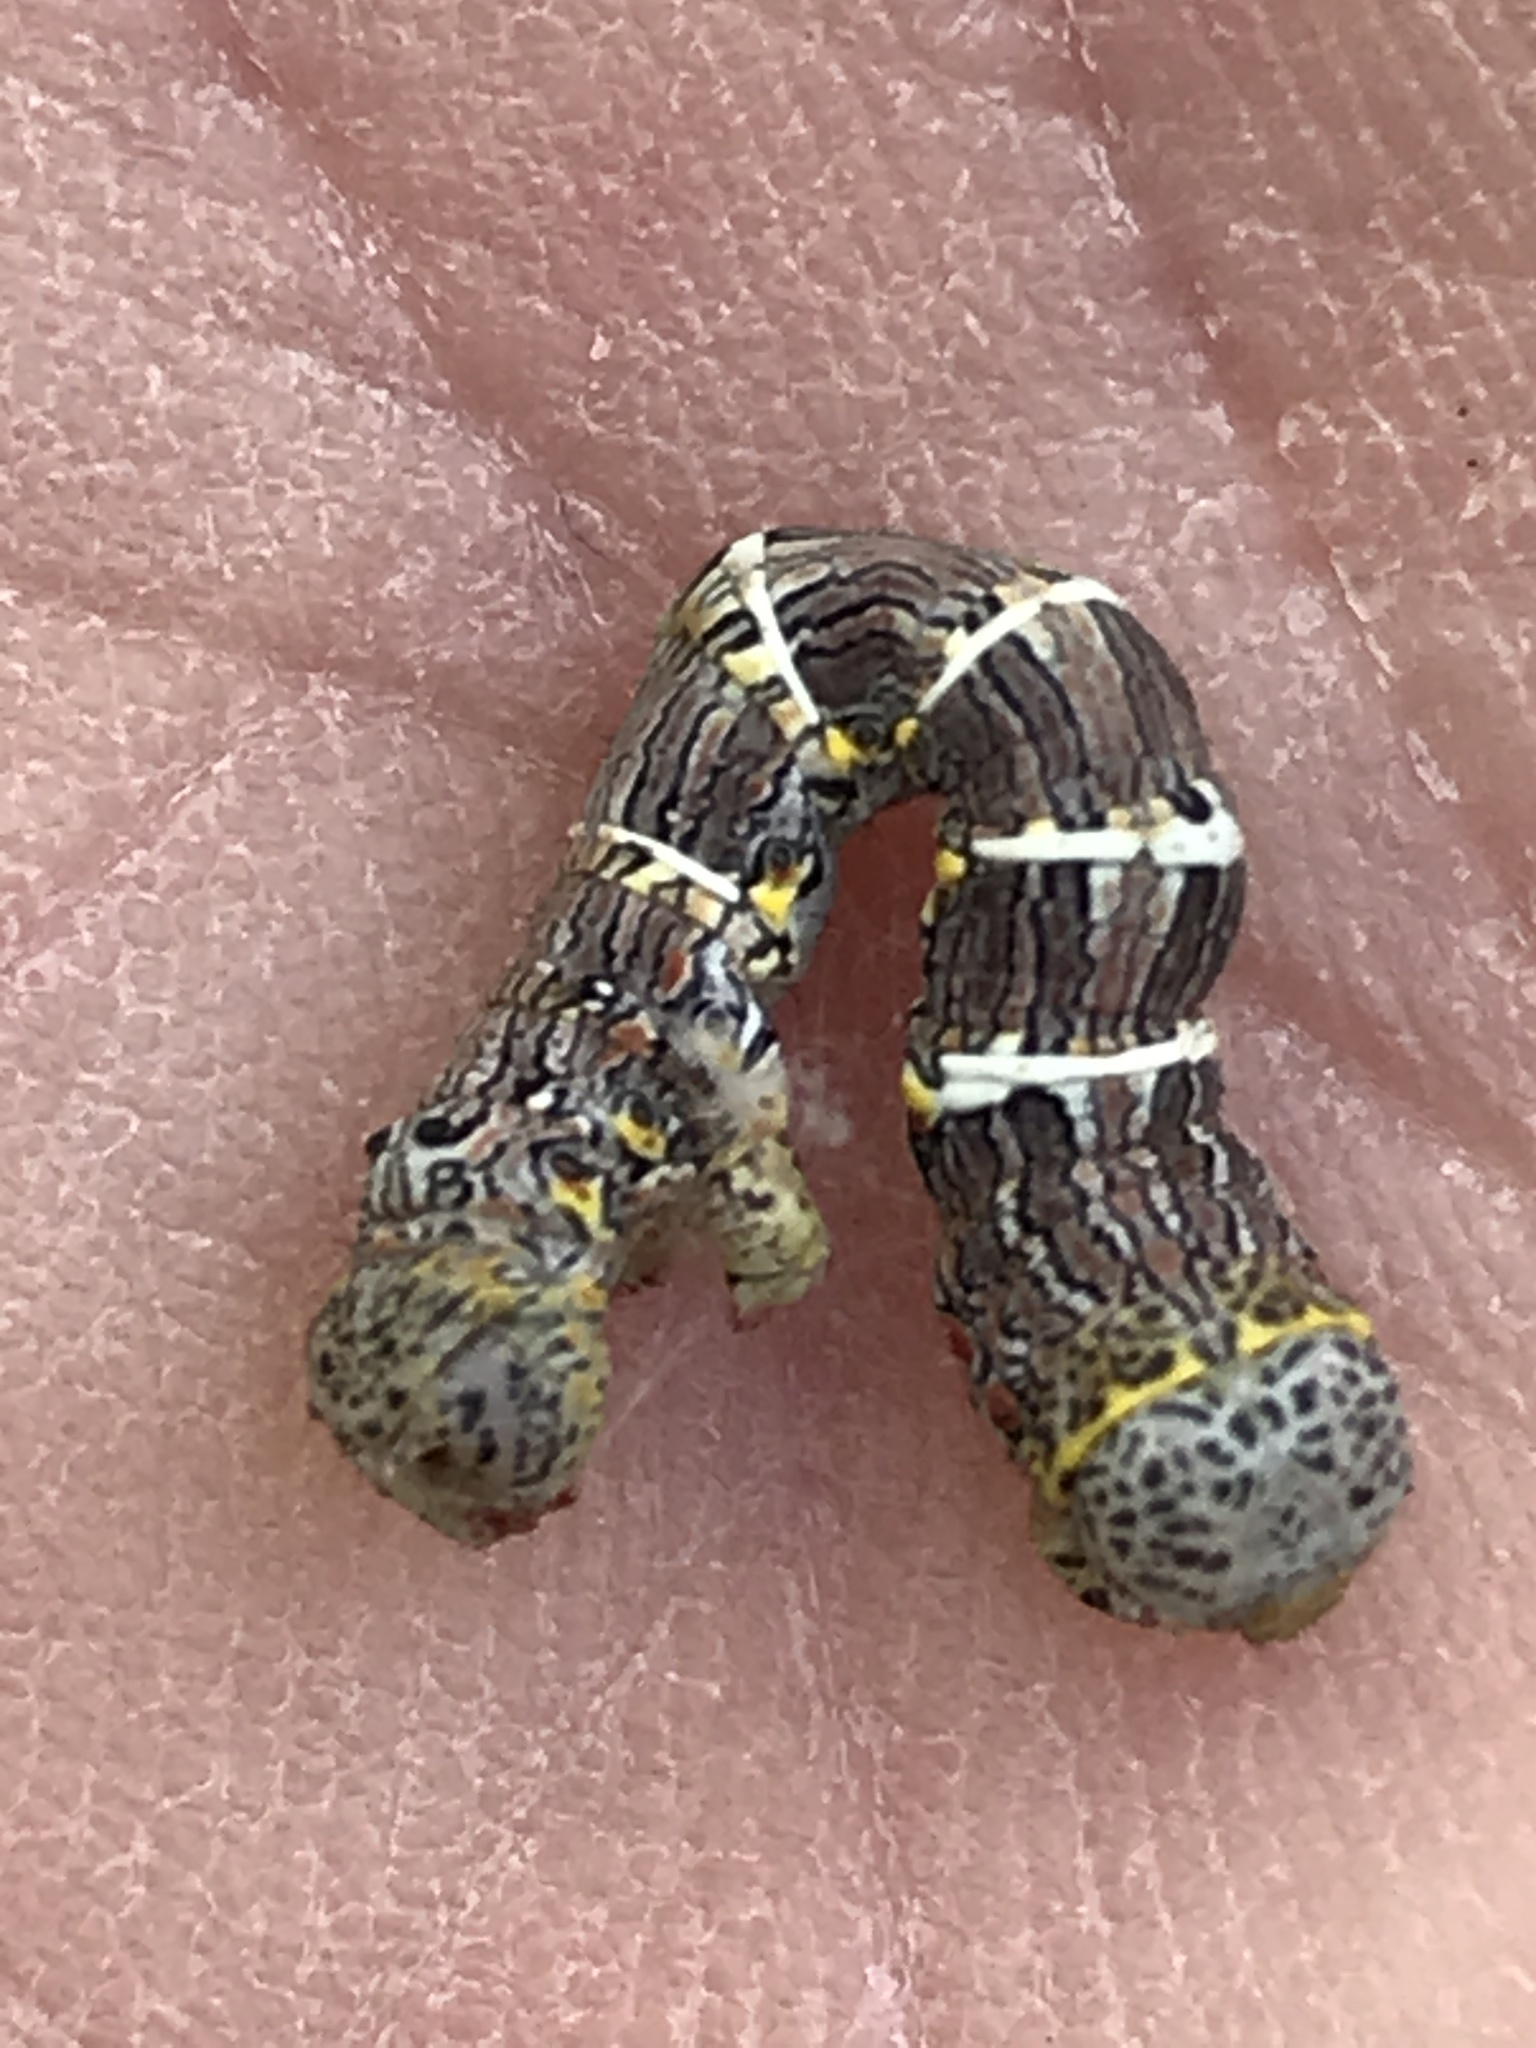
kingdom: Animalia
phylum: Arthropoda
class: Insecta
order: Lepidoptera
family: Geometridae
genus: Lycia
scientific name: Lycia ypsilon
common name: Wooly gray
